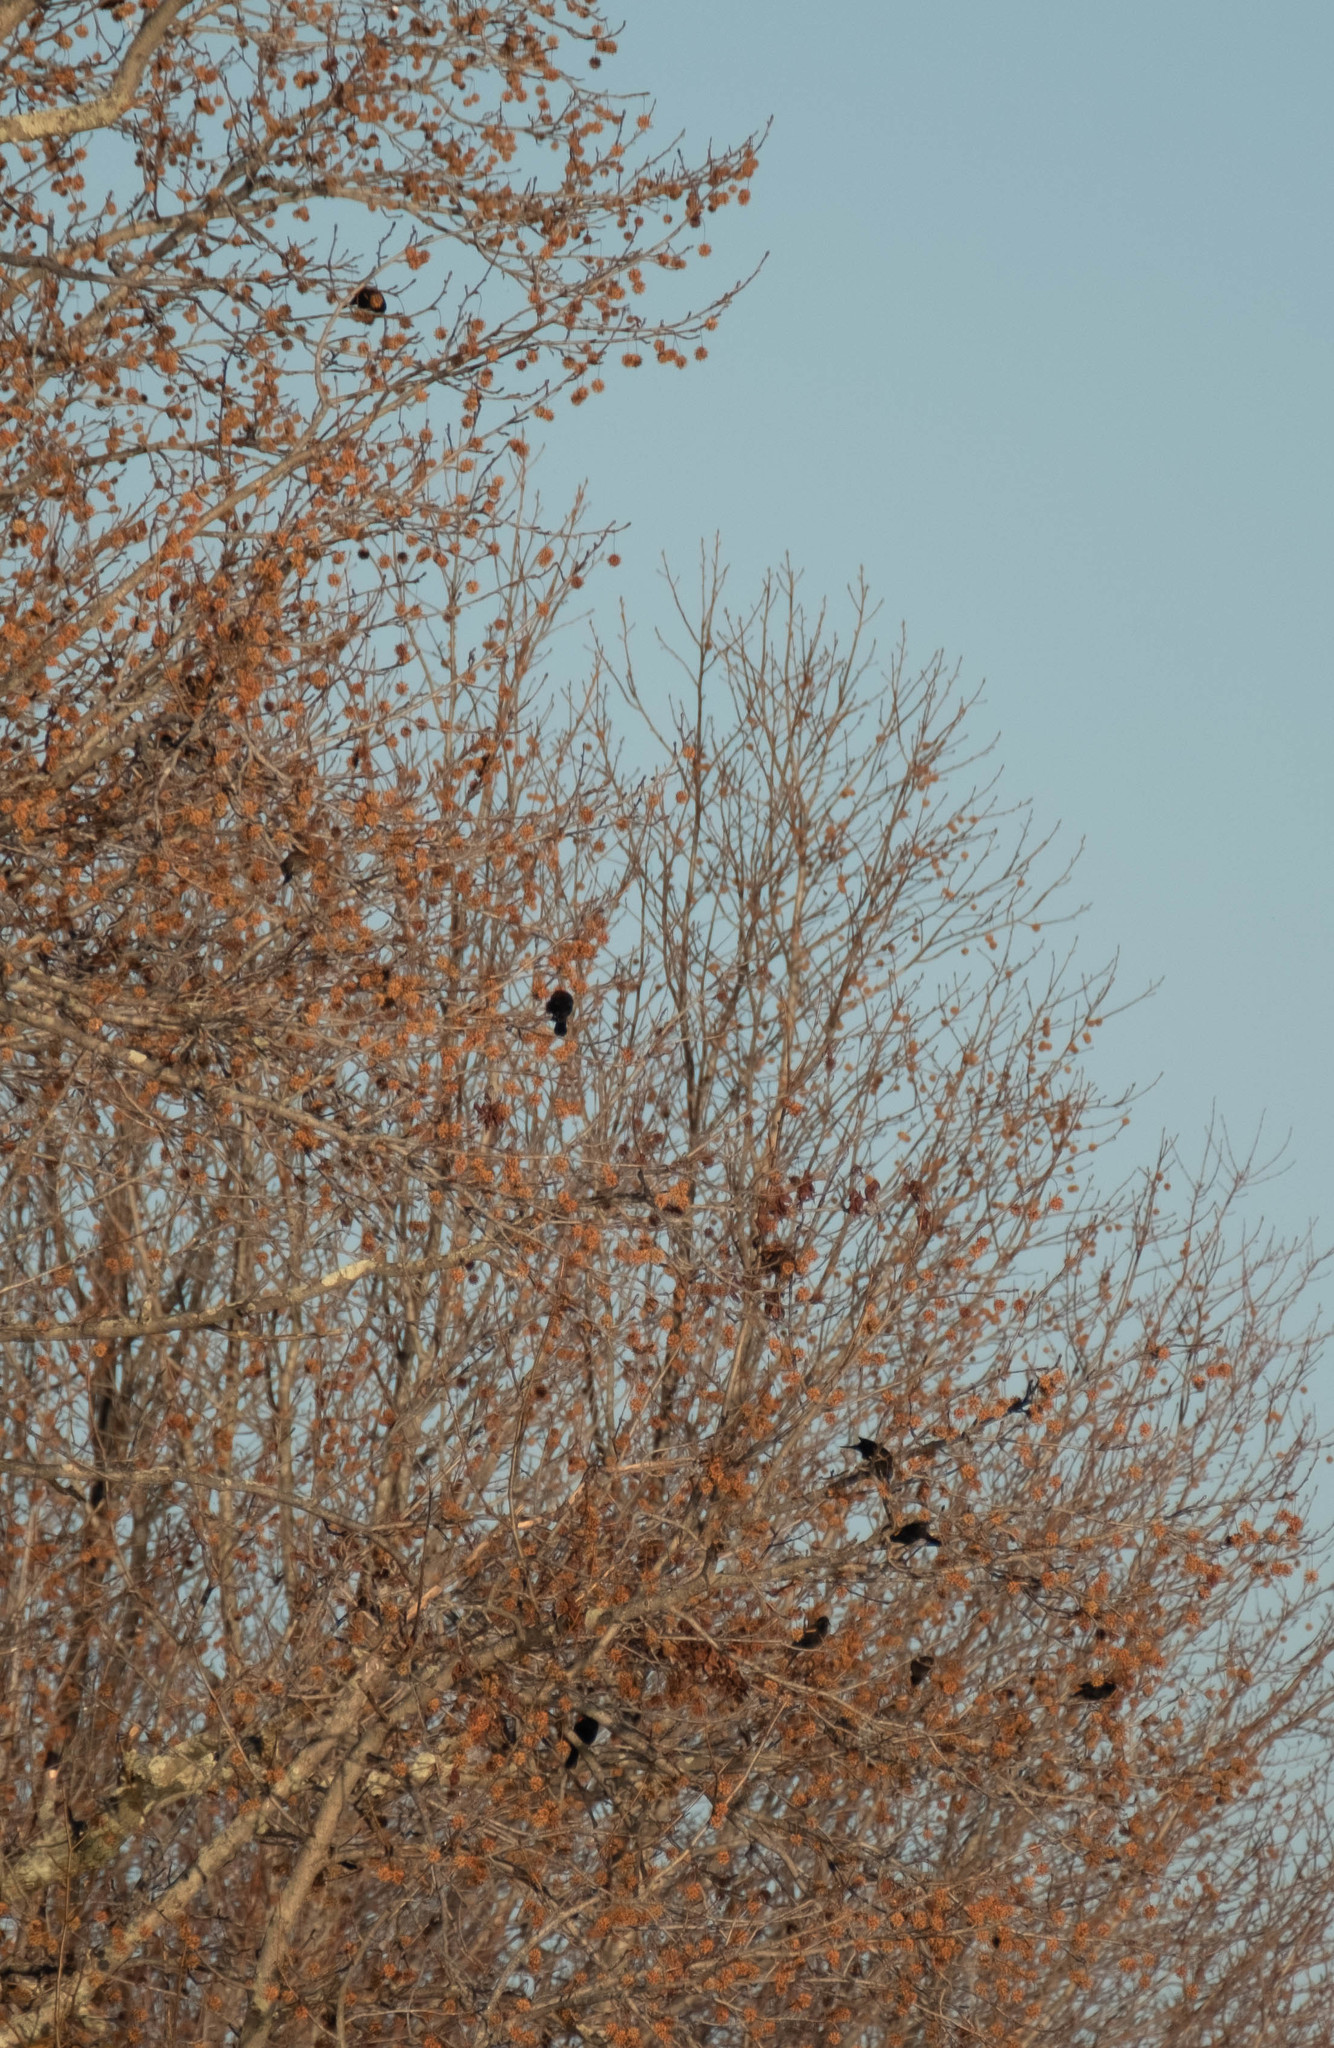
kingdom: Animalia
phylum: Chordata
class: Aves
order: Passeriformes
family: Icteridae
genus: Agelaius
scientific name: Agelaius phoeniceus
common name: Red-winged blackbird
